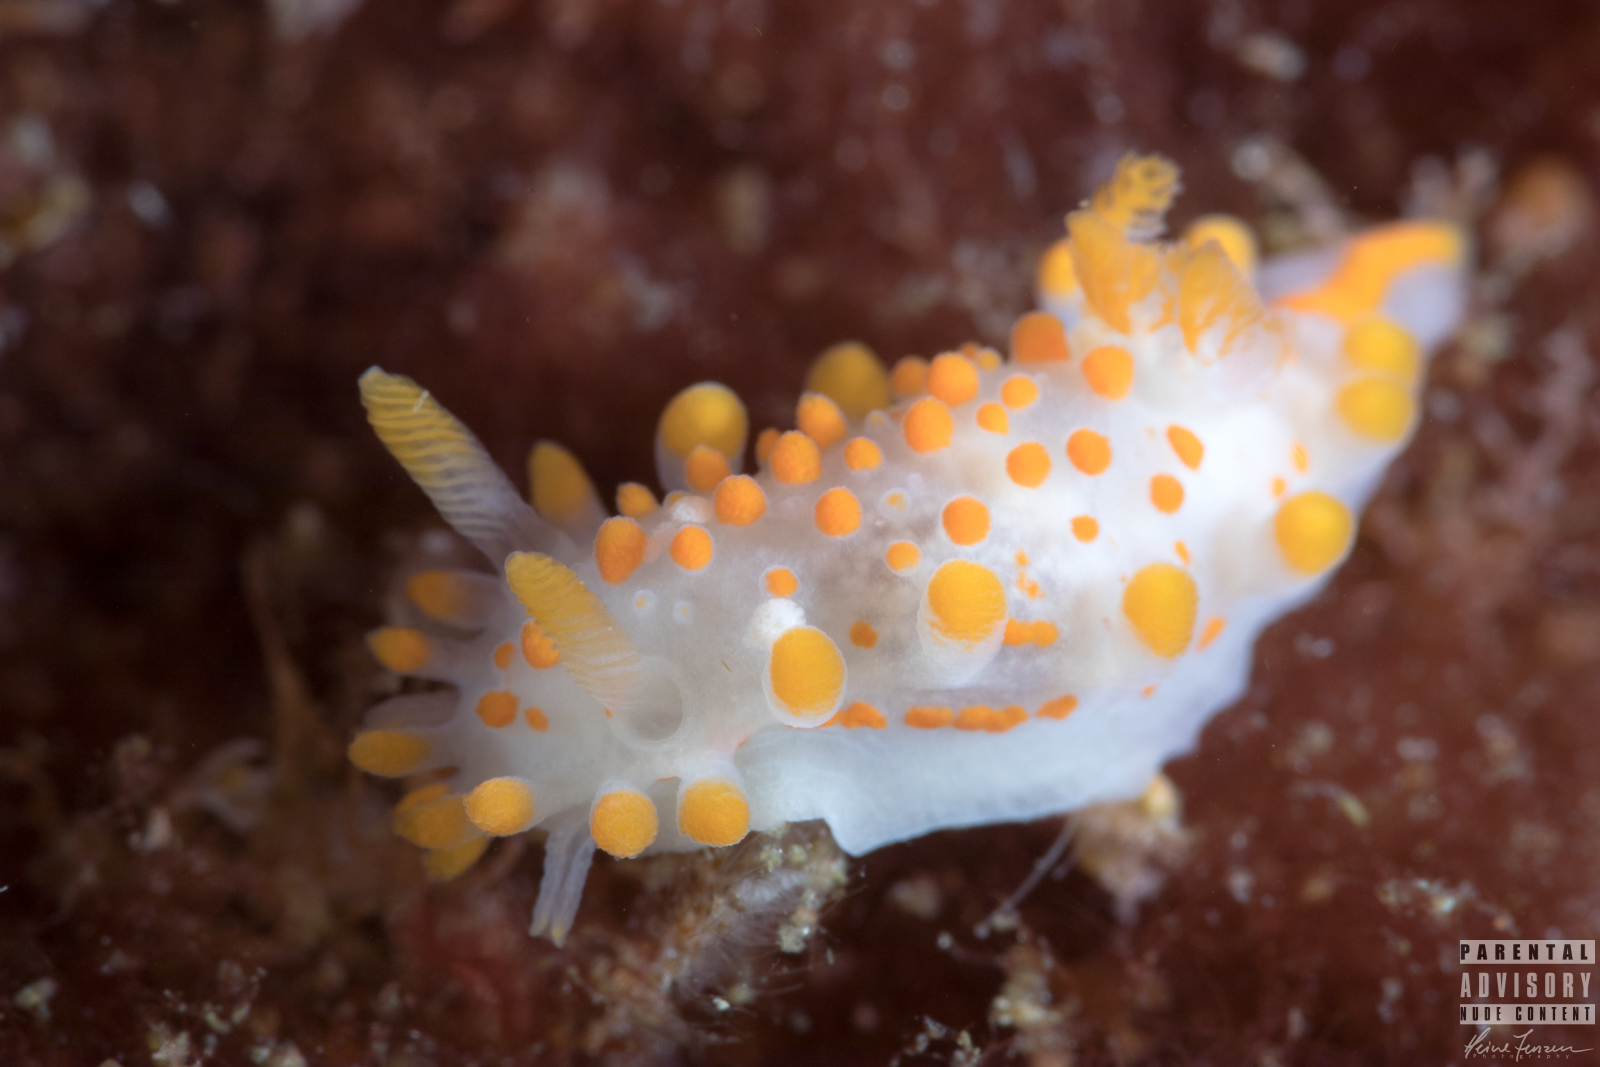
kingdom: Animalia
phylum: Mollusca
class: Gastropoda
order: Nudibranchia
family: Polyceridae
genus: Limacia
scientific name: Limacia clavigera
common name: Orange-clubbed sea slug
